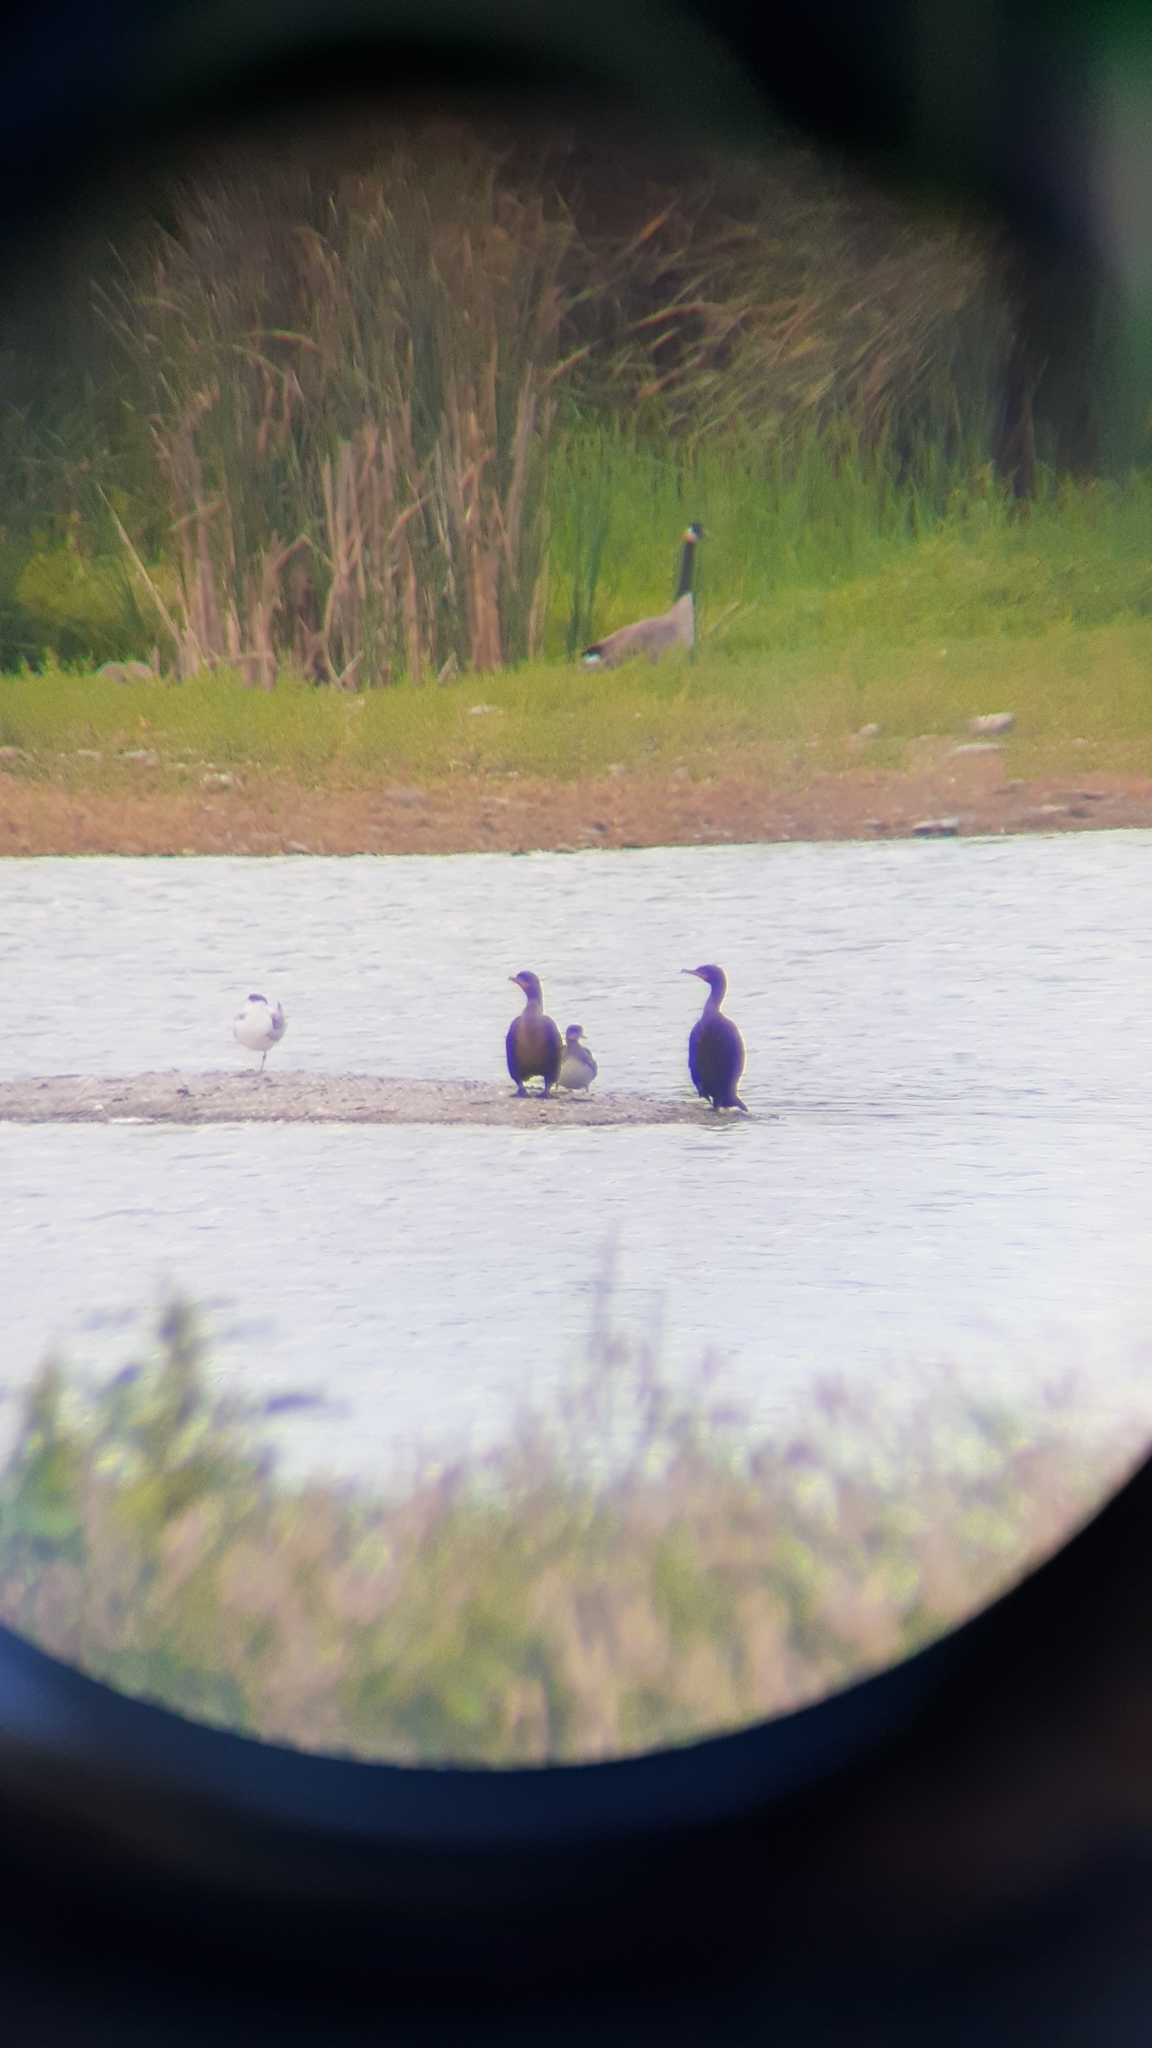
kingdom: Animalia
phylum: Chordata
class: Aves
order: Anseriformes
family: Anatidae
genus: Lophodytes
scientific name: Lophodytes cucullatus
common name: Hooded merganser
